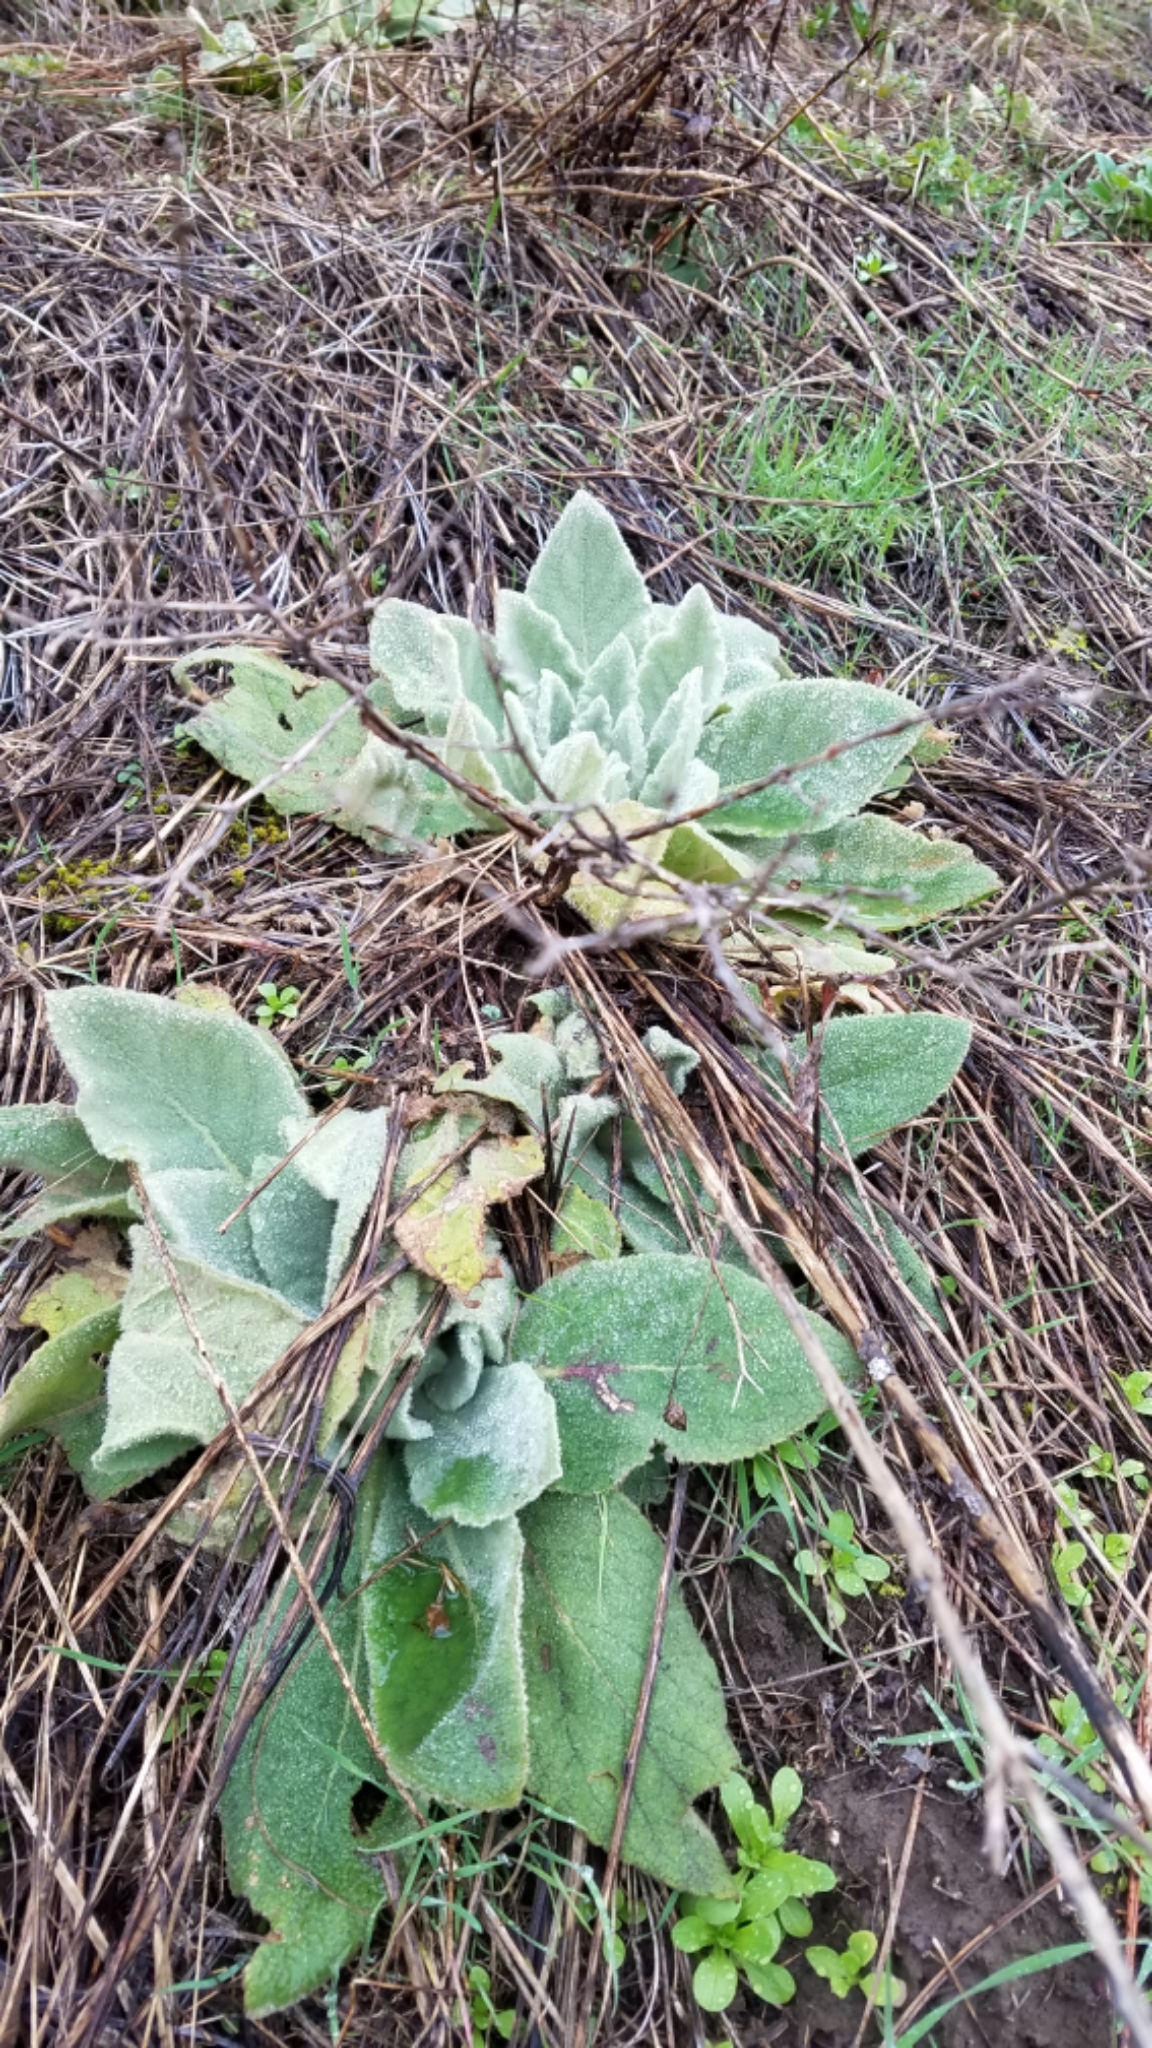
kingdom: Plantae
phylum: Tracheophyta
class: Magnoliopsida
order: Lamiales
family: Scrophulariaceae
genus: Verbascum
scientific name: Verbascum thapsus
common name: Common mullein
